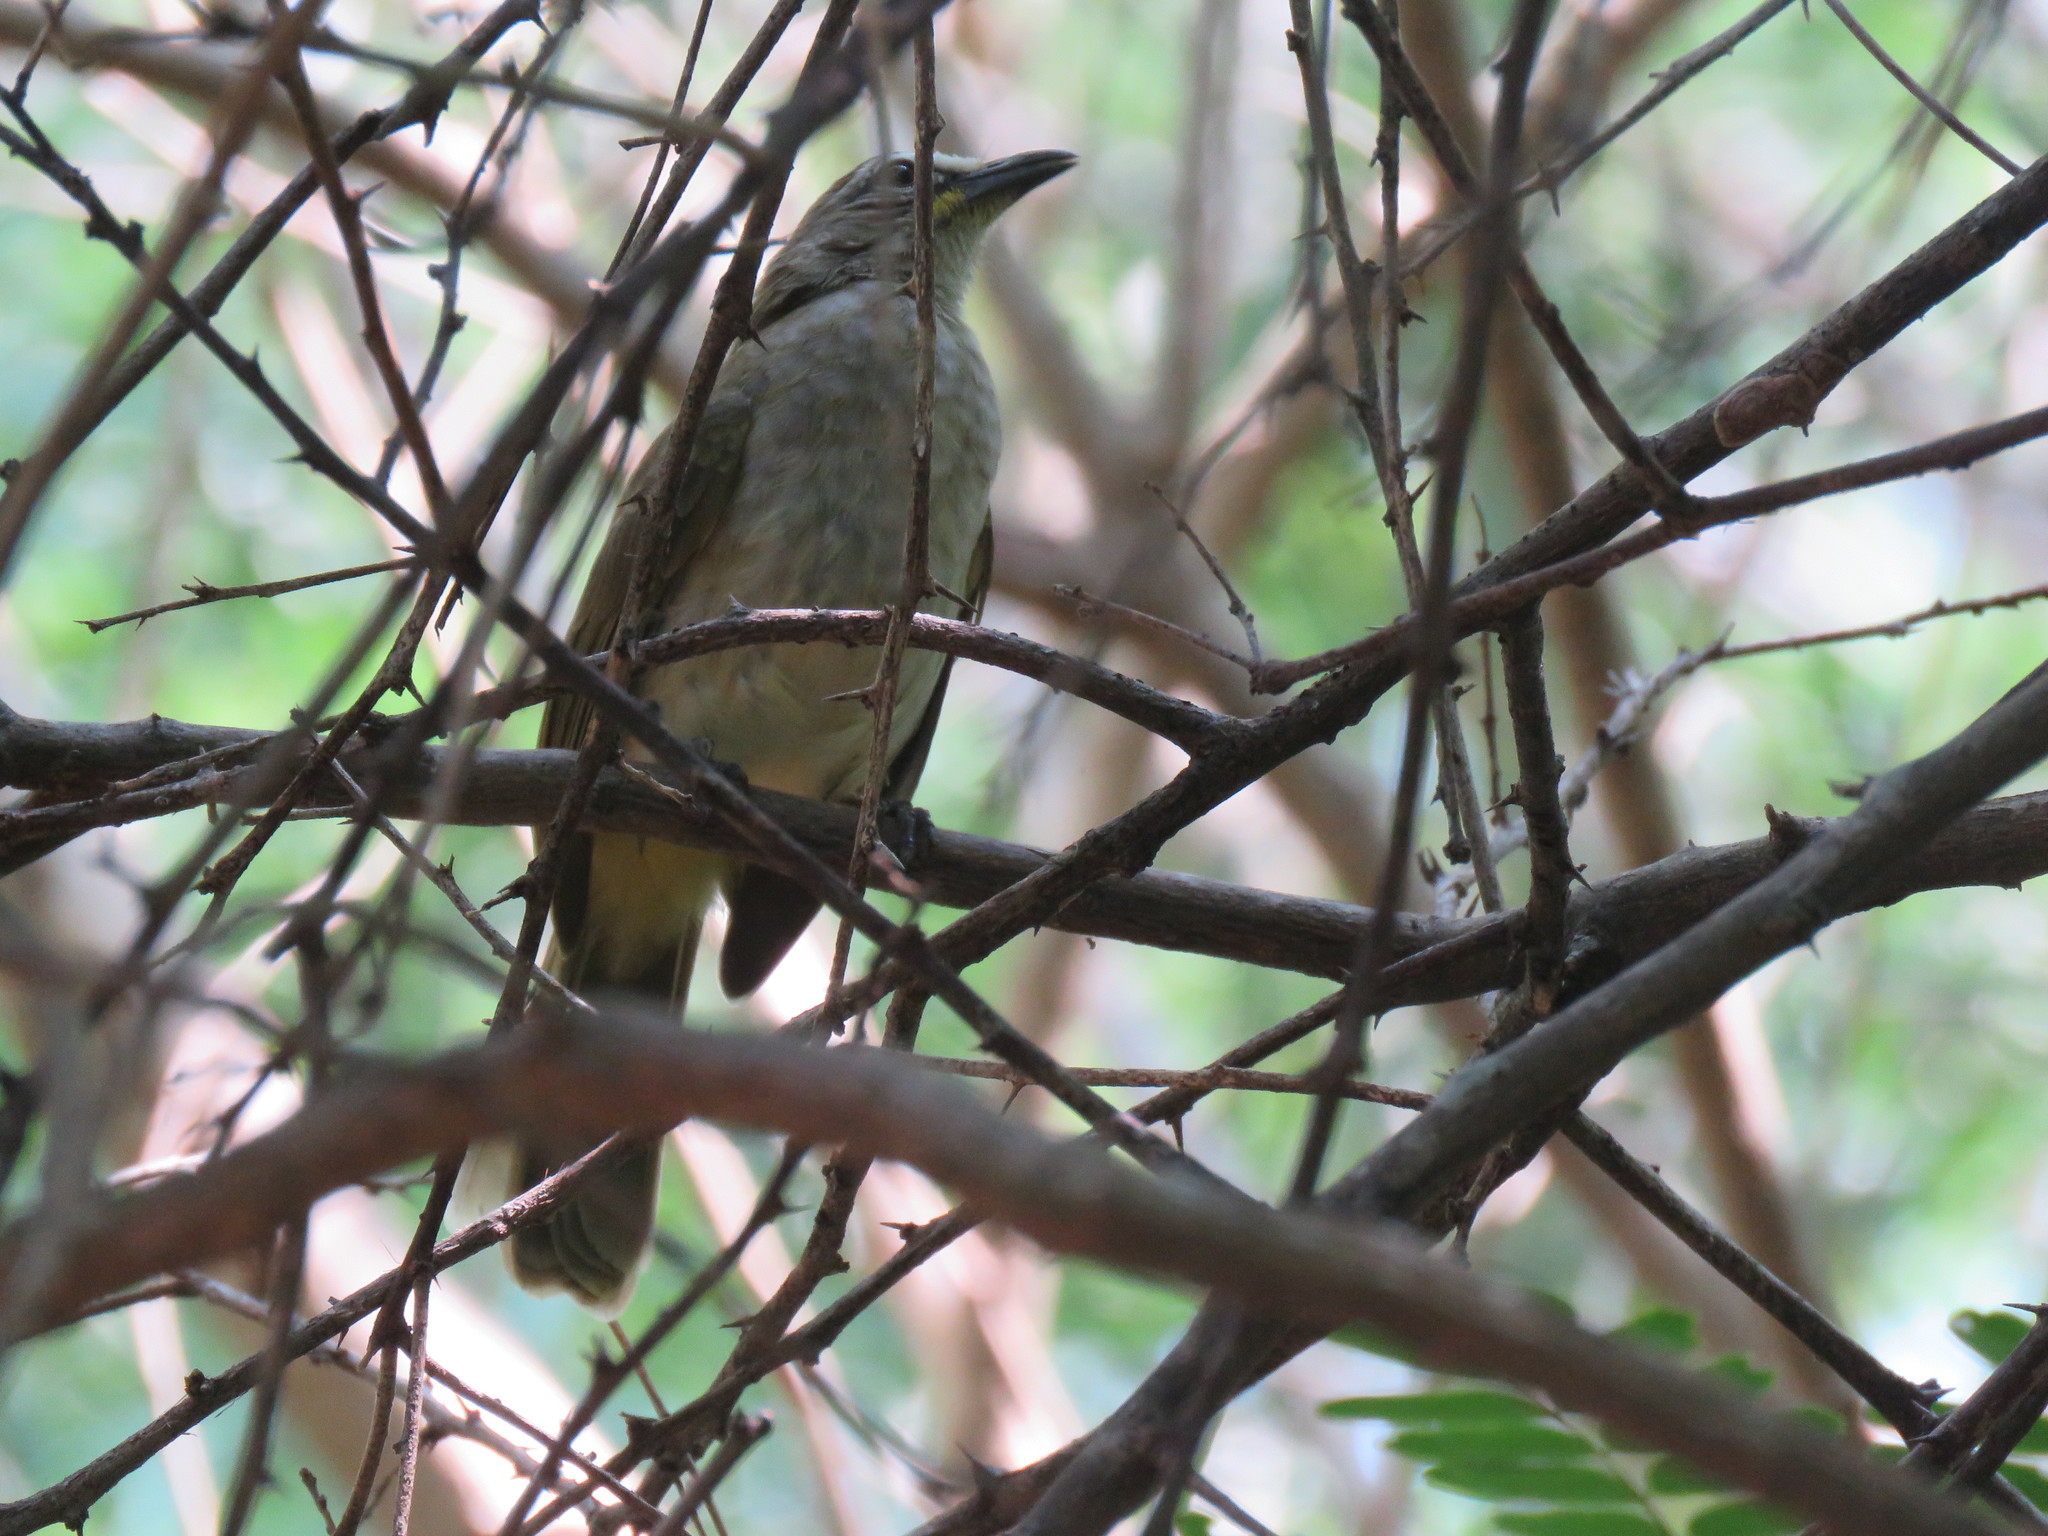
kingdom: Animalia
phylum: Chordata
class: Aves
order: Passeriformes
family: Pycnonotidae
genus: Pycnonotus
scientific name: Pycnonotus luteolus
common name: White-browed bulbul
